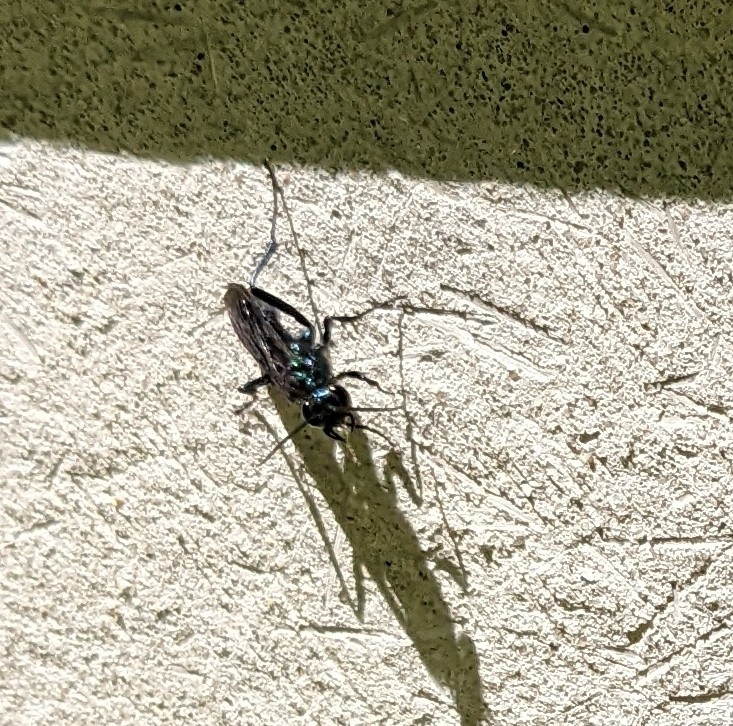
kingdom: Animalia
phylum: Arthropoda
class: Insecta
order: Hymenoptera
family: Sphecidae
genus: Chalybion
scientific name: Chalybion californicum
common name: Mud dauber
